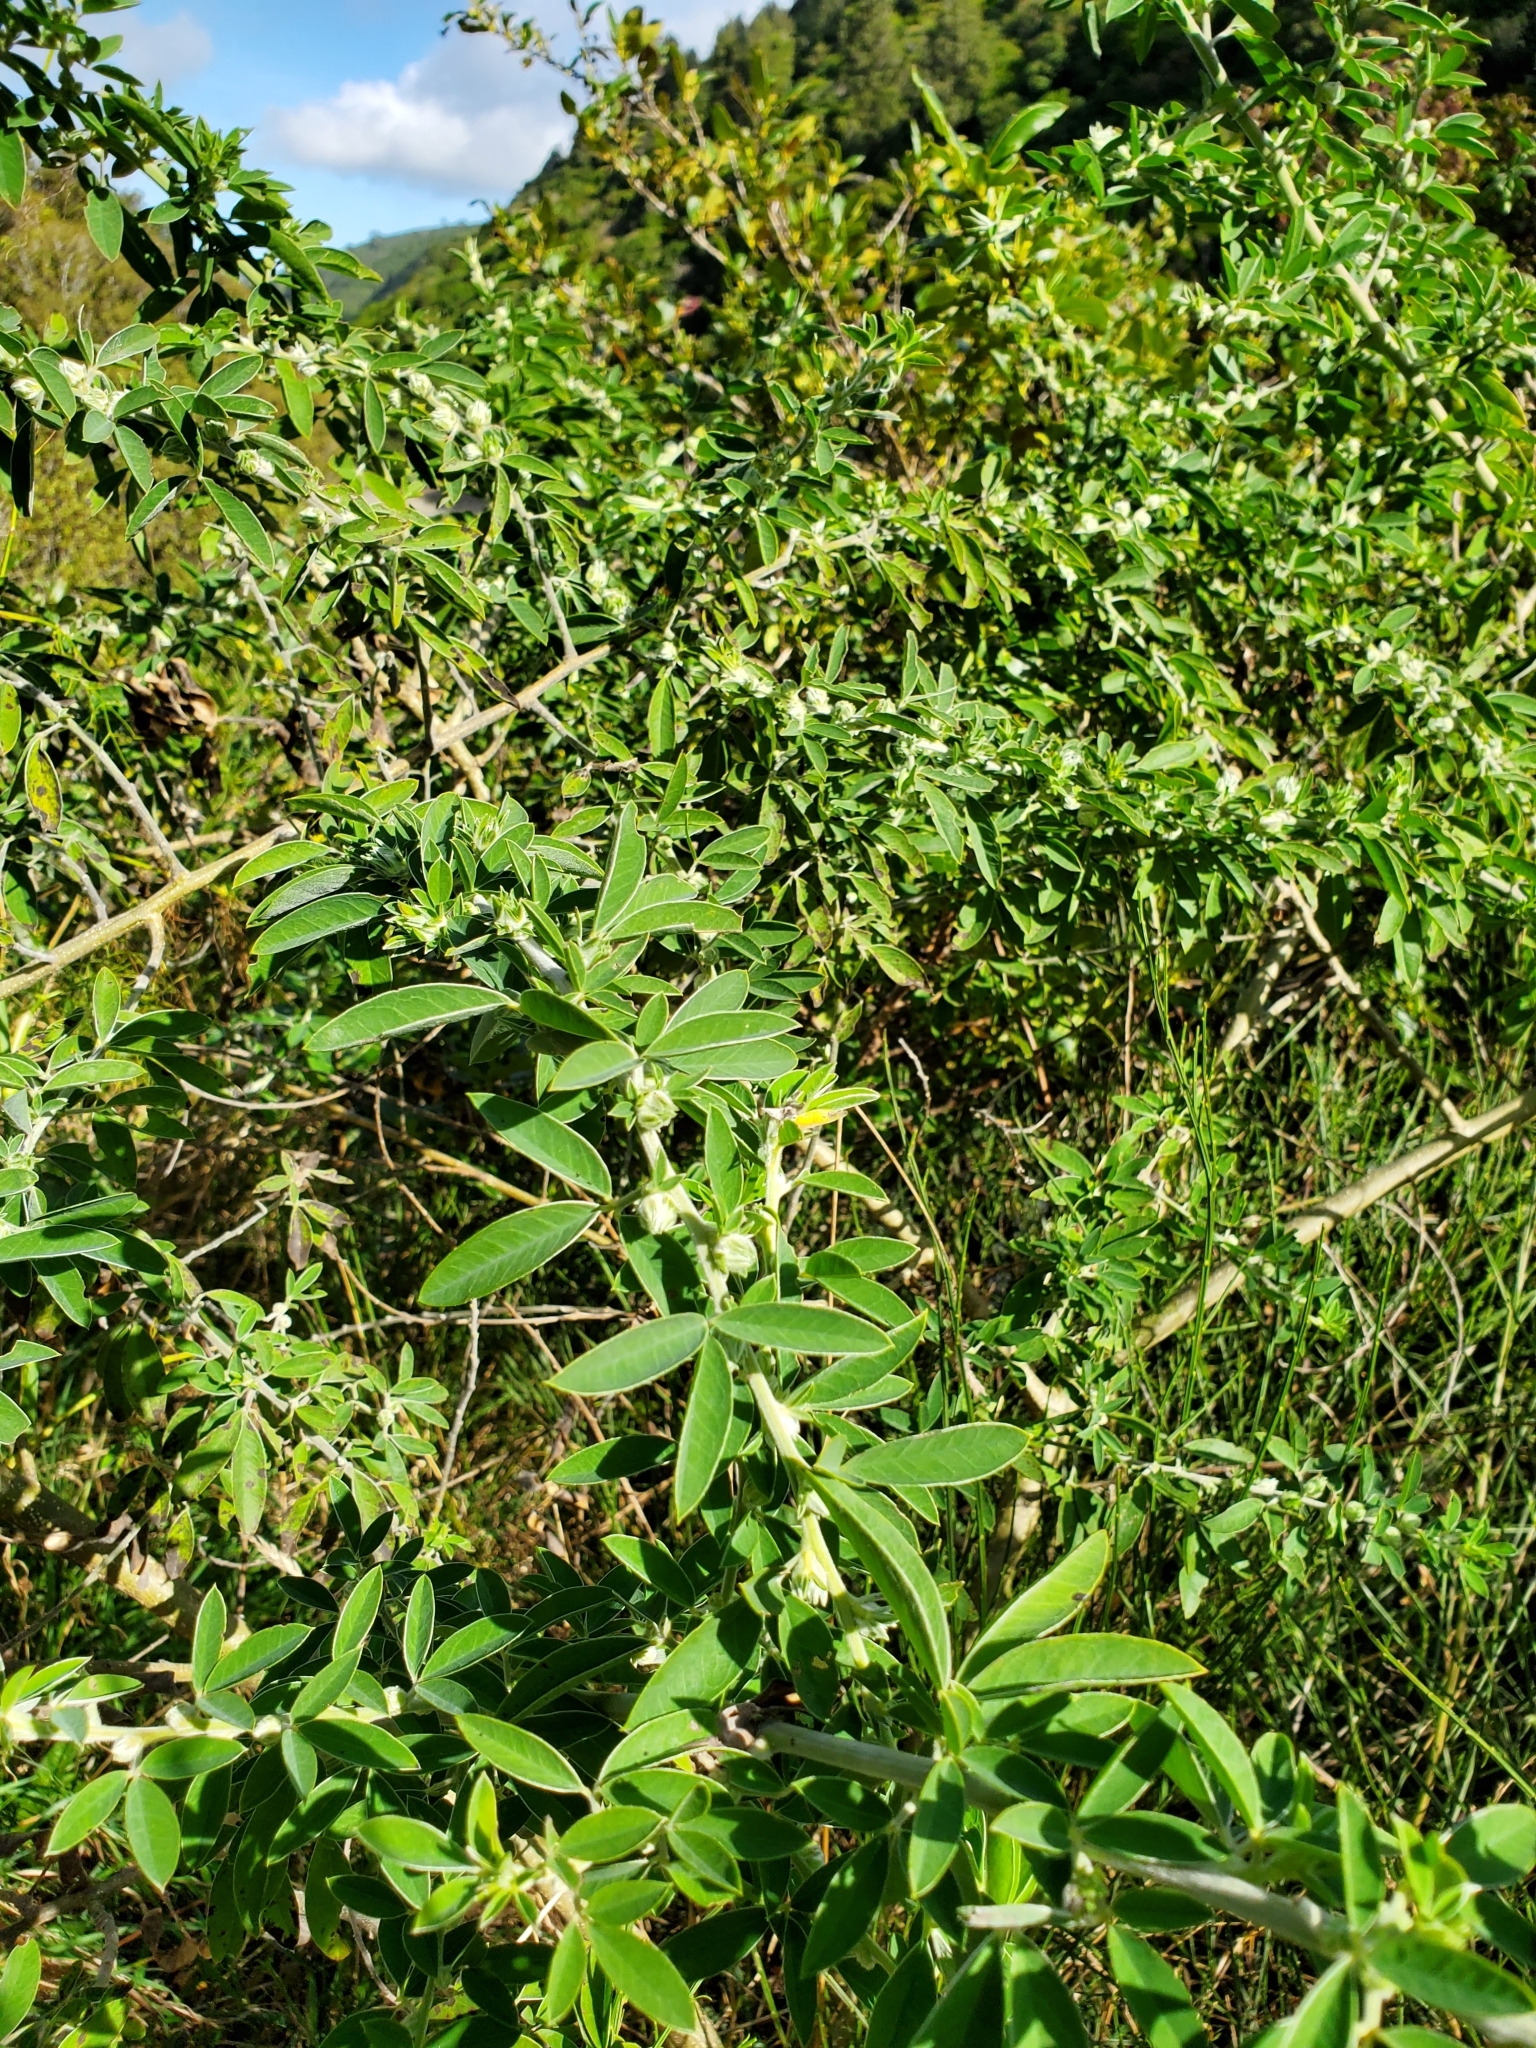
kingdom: Plantae
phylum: Tracheophyta
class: Magnoliopsida
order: Fabales
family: Fabaceae
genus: Chamaecytisus
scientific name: Chamaecytisus prolifer
